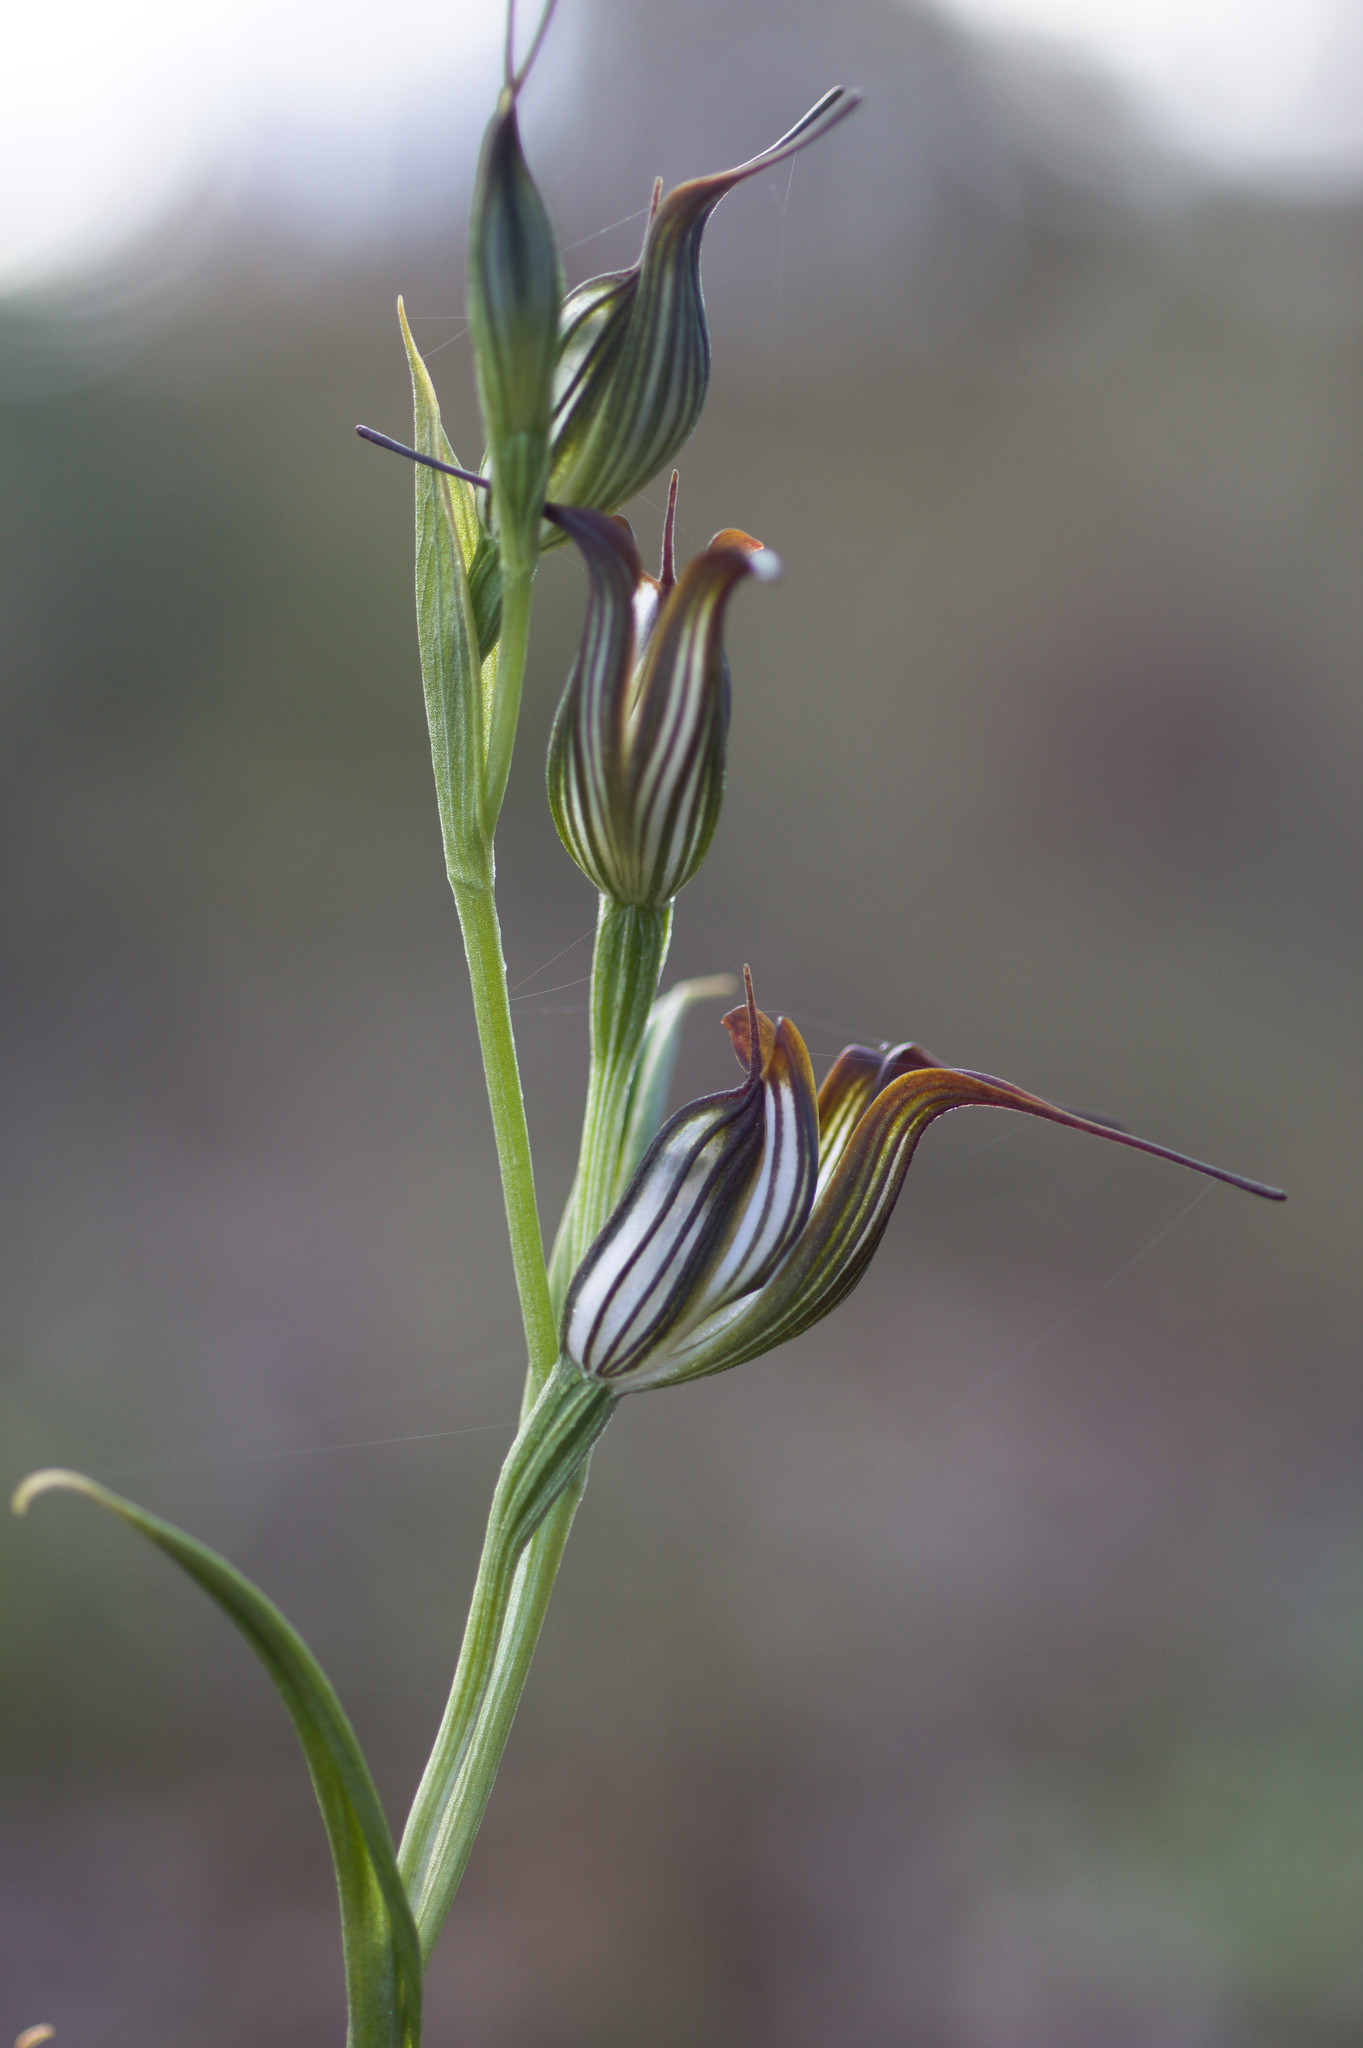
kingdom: Plantae
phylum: Tracheophyta
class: Liliopsida
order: Asparagales
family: Orchidaceae
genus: Pterostylis
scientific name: Pterostylis recurva
